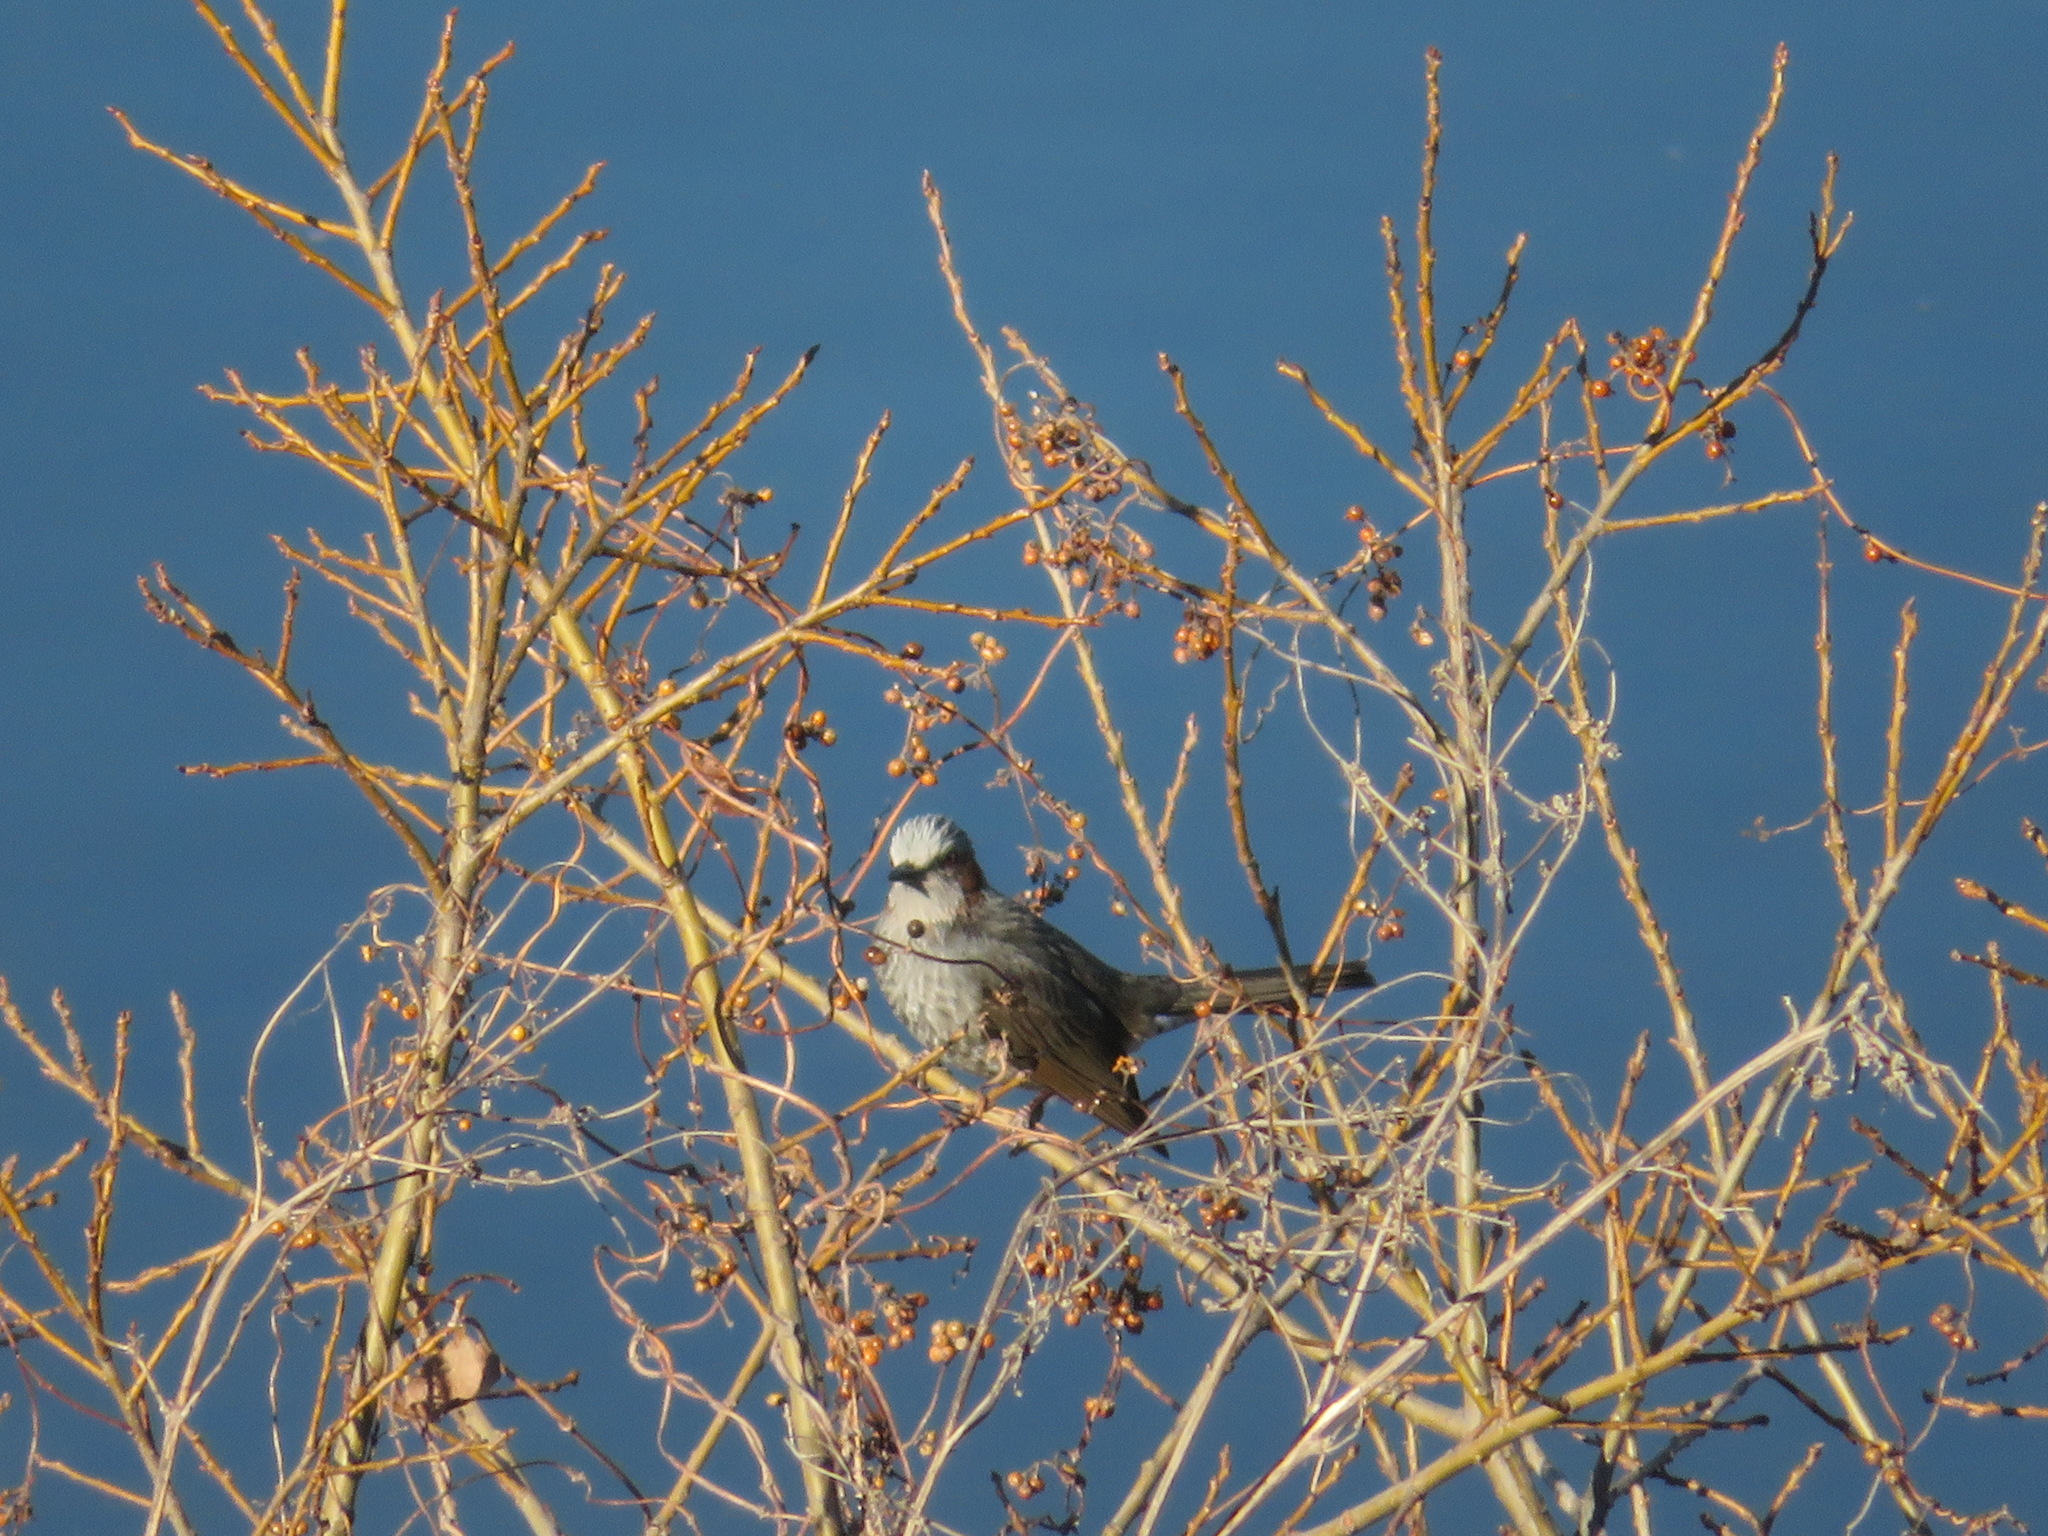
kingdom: Animalia
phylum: Chordata
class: Aves
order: Passeriformes
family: Pycnonotidae
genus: Hypsipetes
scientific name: Hypsipetes amaurotis
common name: Brown-eared bulbul
